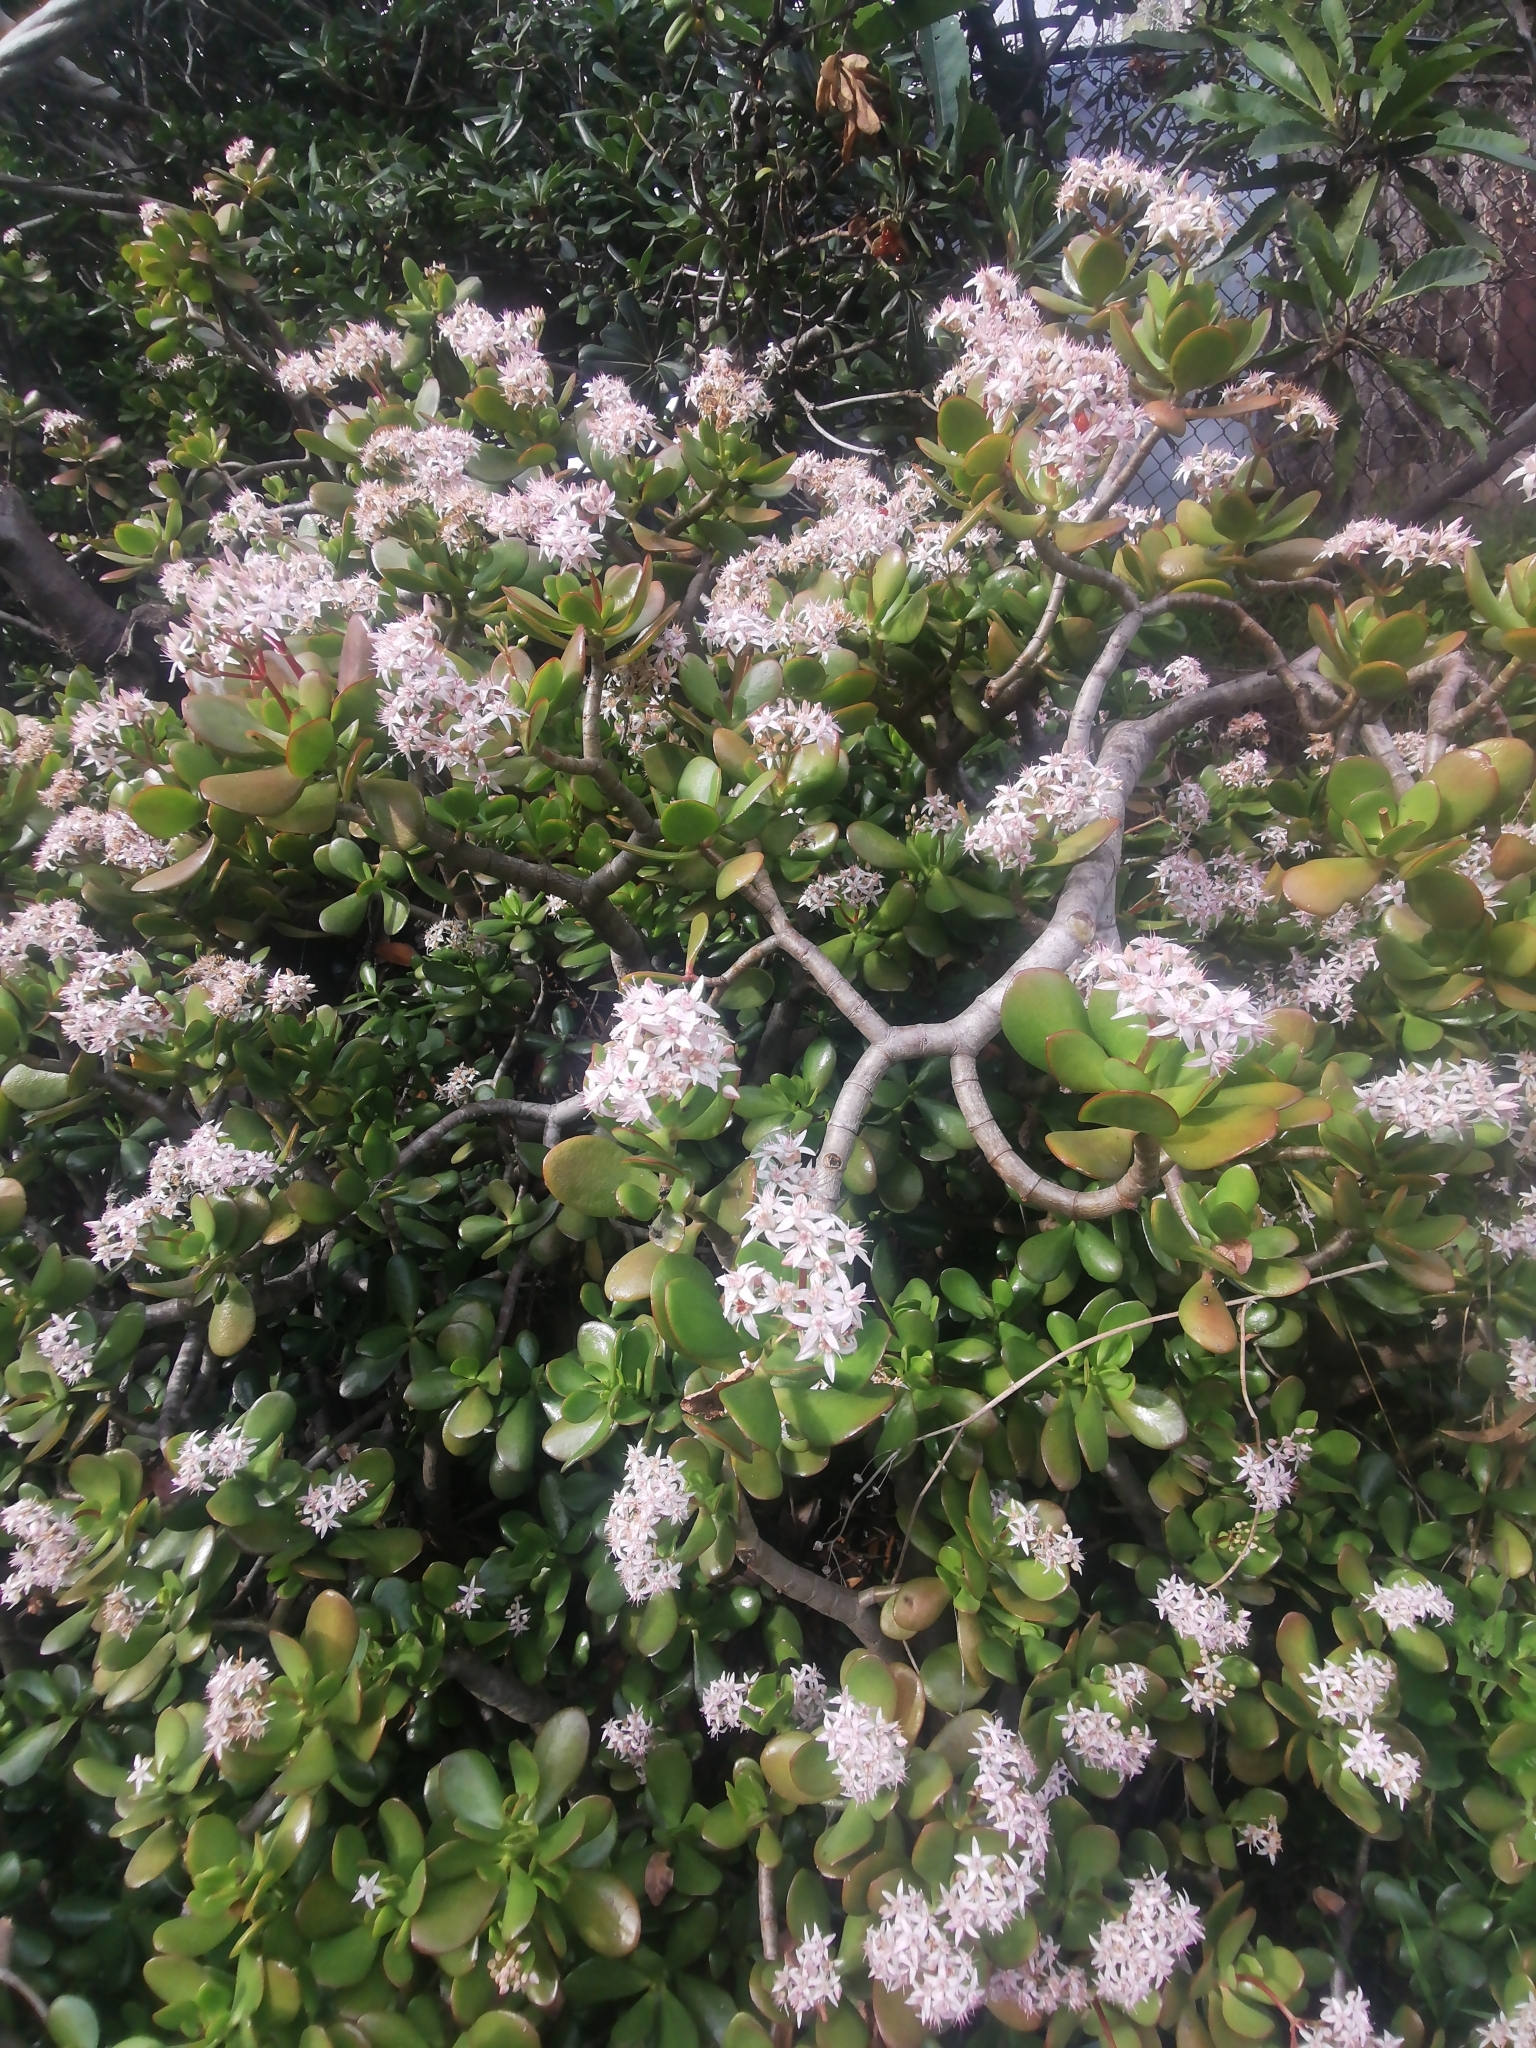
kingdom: Plantae
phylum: Tracheophyta
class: Magnoliopsida
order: Saxifragales
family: Crassulaceae
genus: Crassula
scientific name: Crassula ovata
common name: Jade plant
